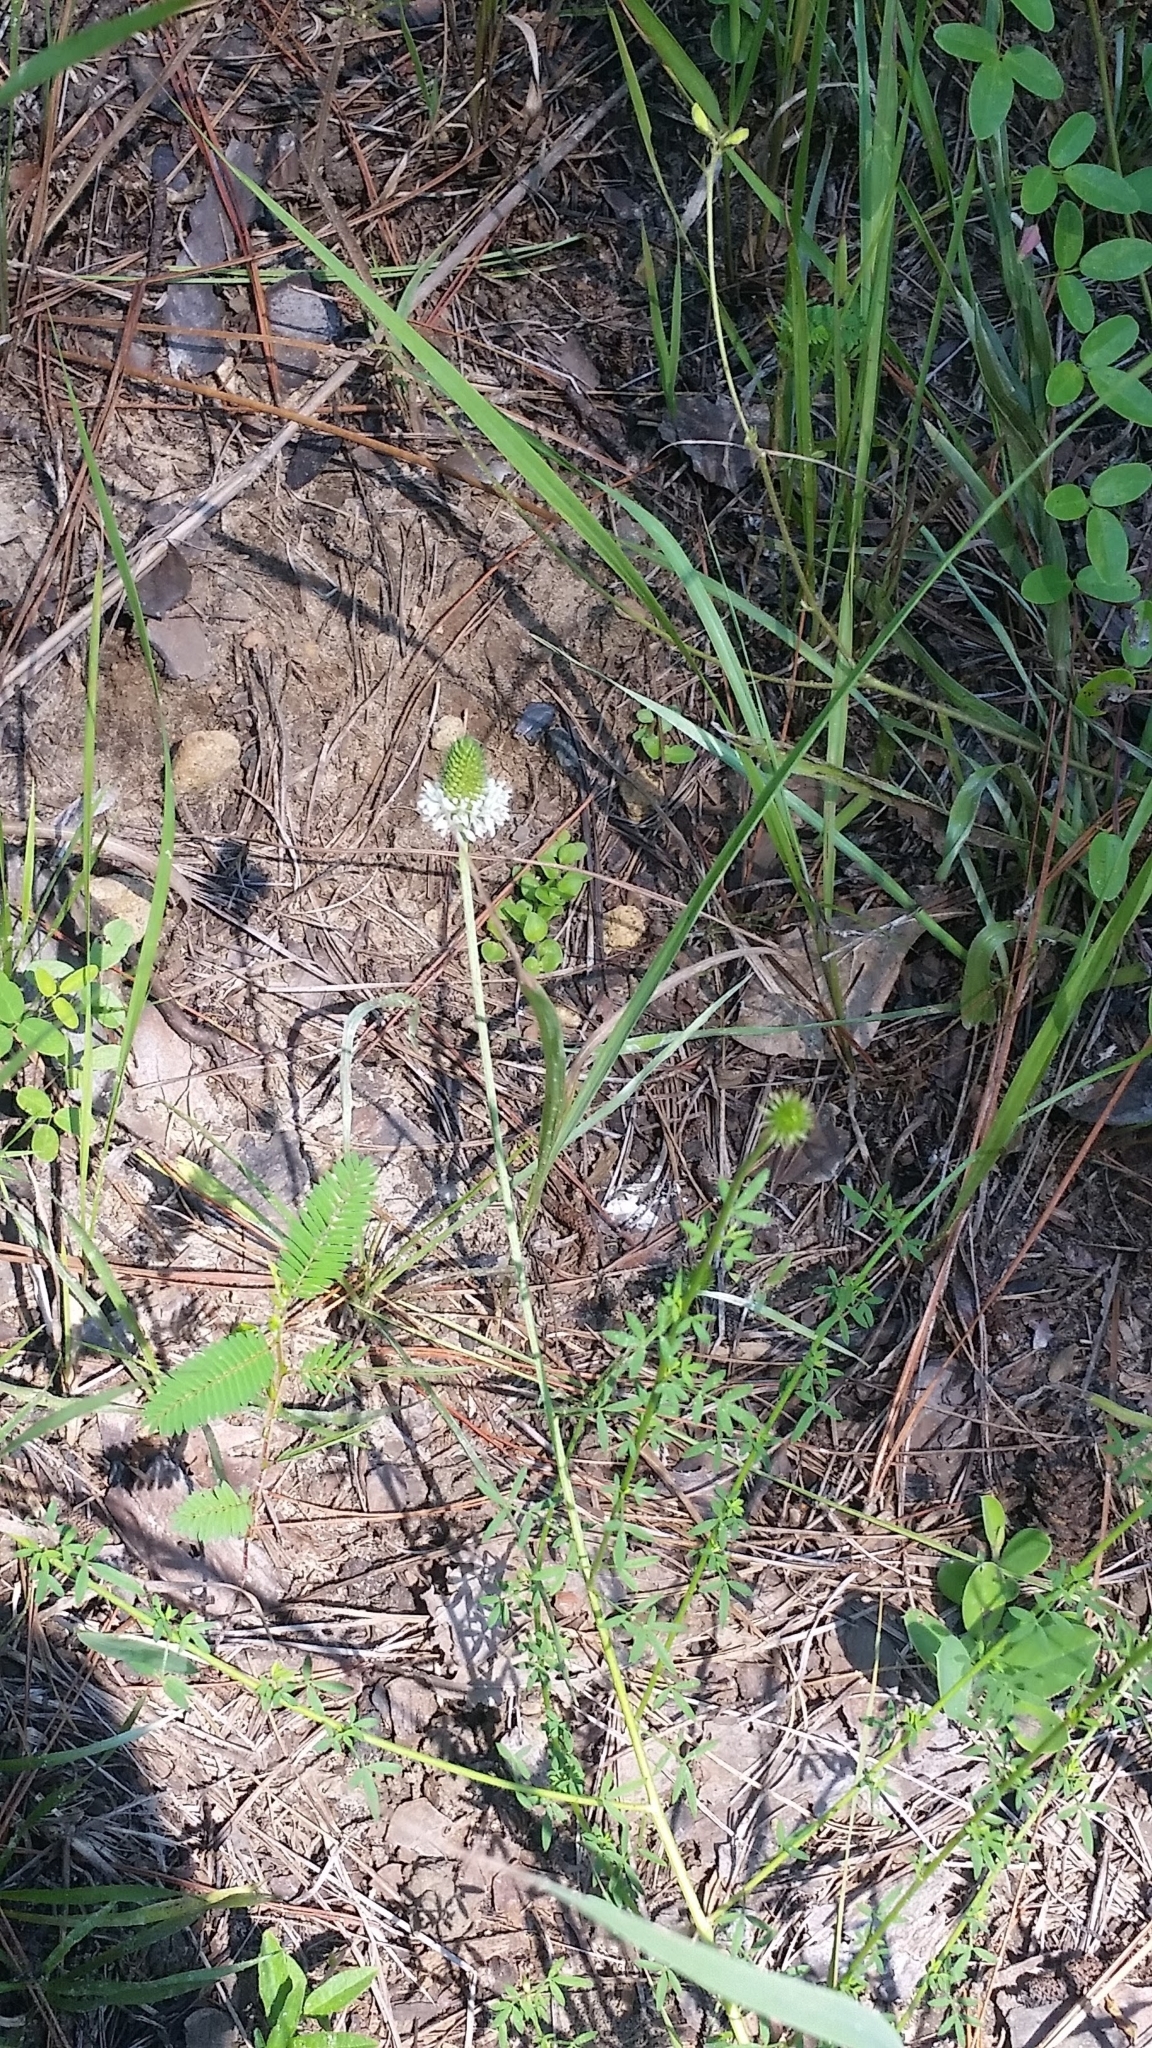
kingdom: Plantae
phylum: Tracheophyta
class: Magnoliopsida
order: Fabales
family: Fabaceae
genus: Dalea
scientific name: Dalea carnea
